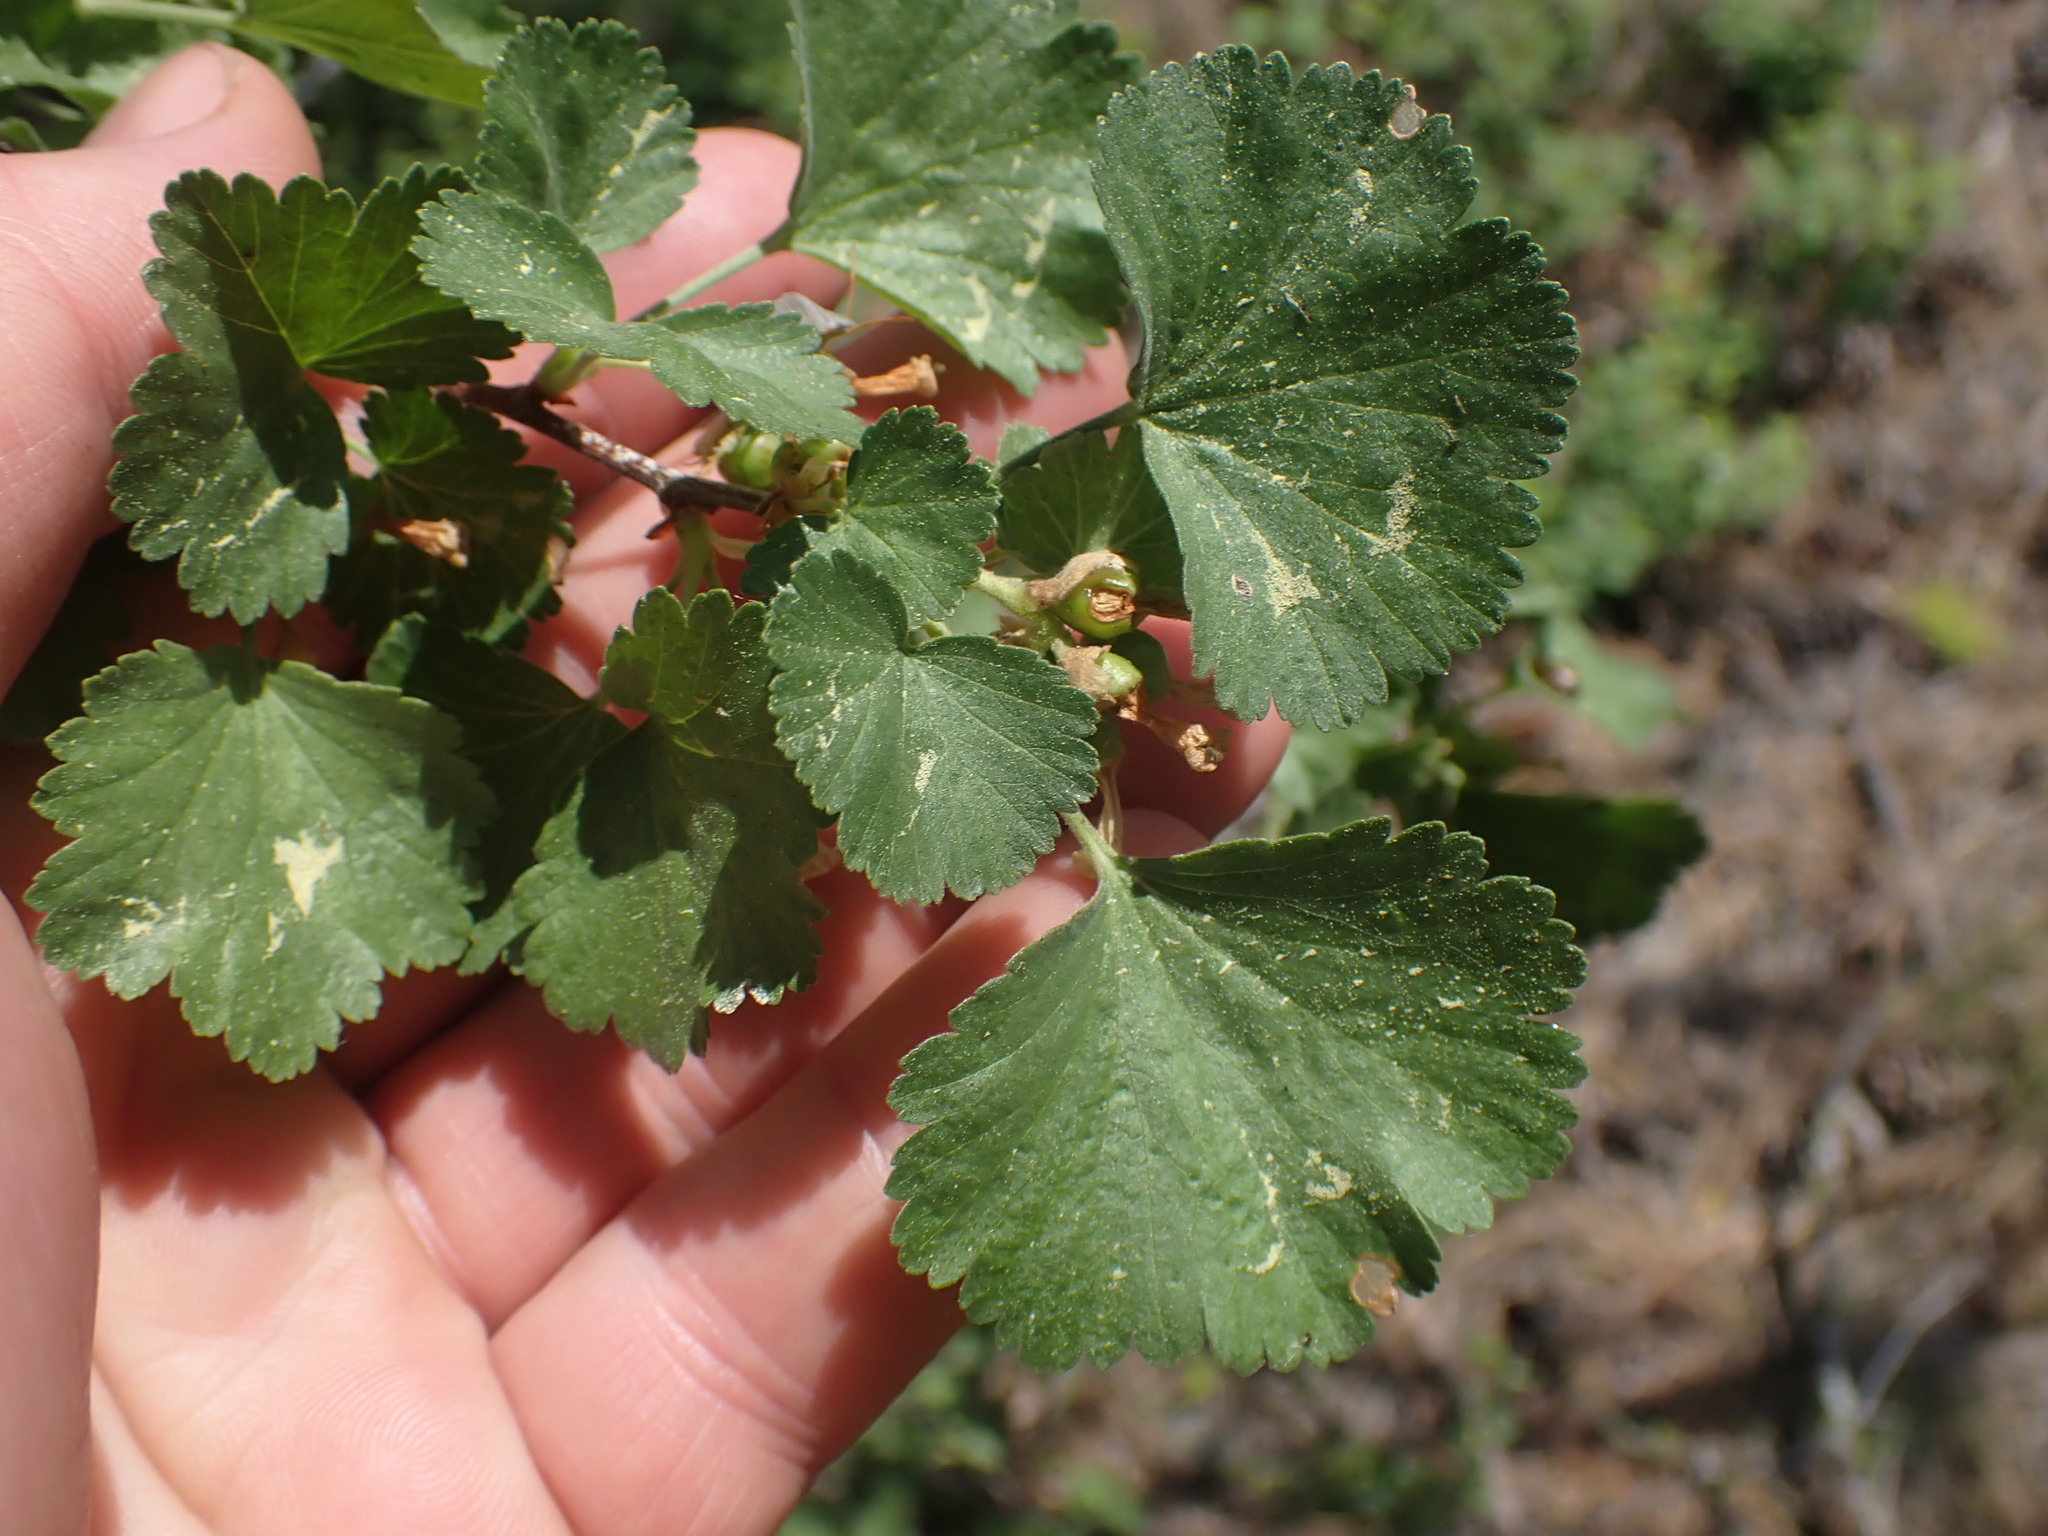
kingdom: Plantae
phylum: Tracheophyta
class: Magnoliopsida
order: Saxifragales
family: Grossulariaceae
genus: Ribes
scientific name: Ribes cereum
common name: Wax currant
